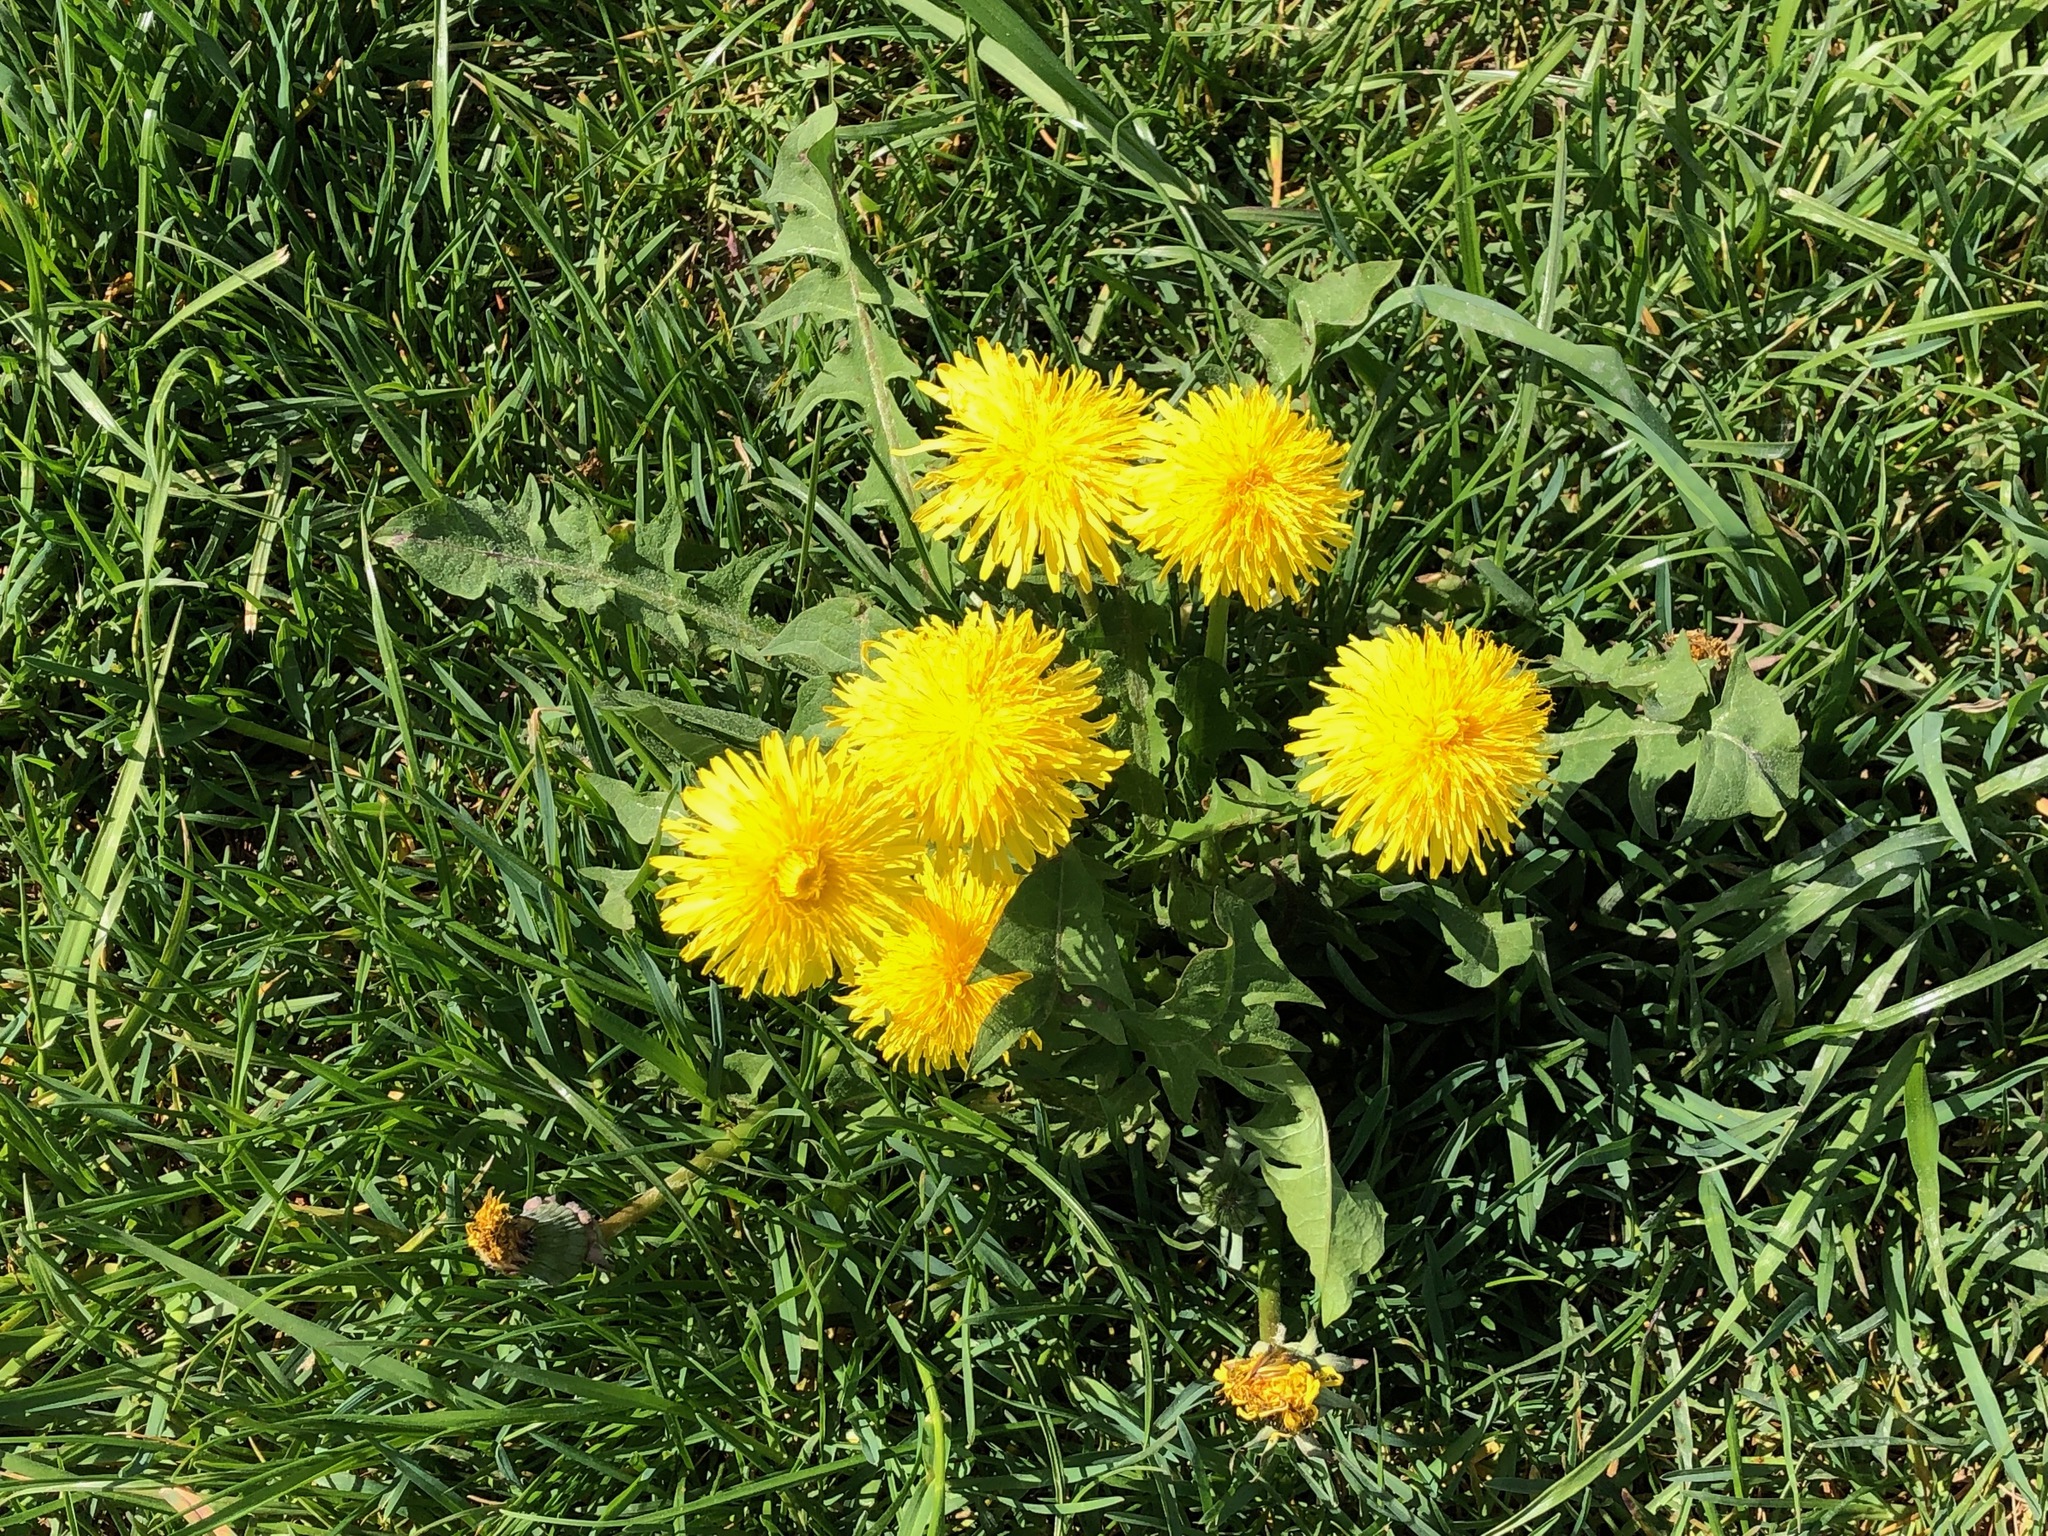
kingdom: Plantae
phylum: Tracheophyta
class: Magnoliopsida
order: Asterales
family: Asteraceae
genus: Taraxacum
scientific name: Taraxacum officinale
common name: Common dandelion
